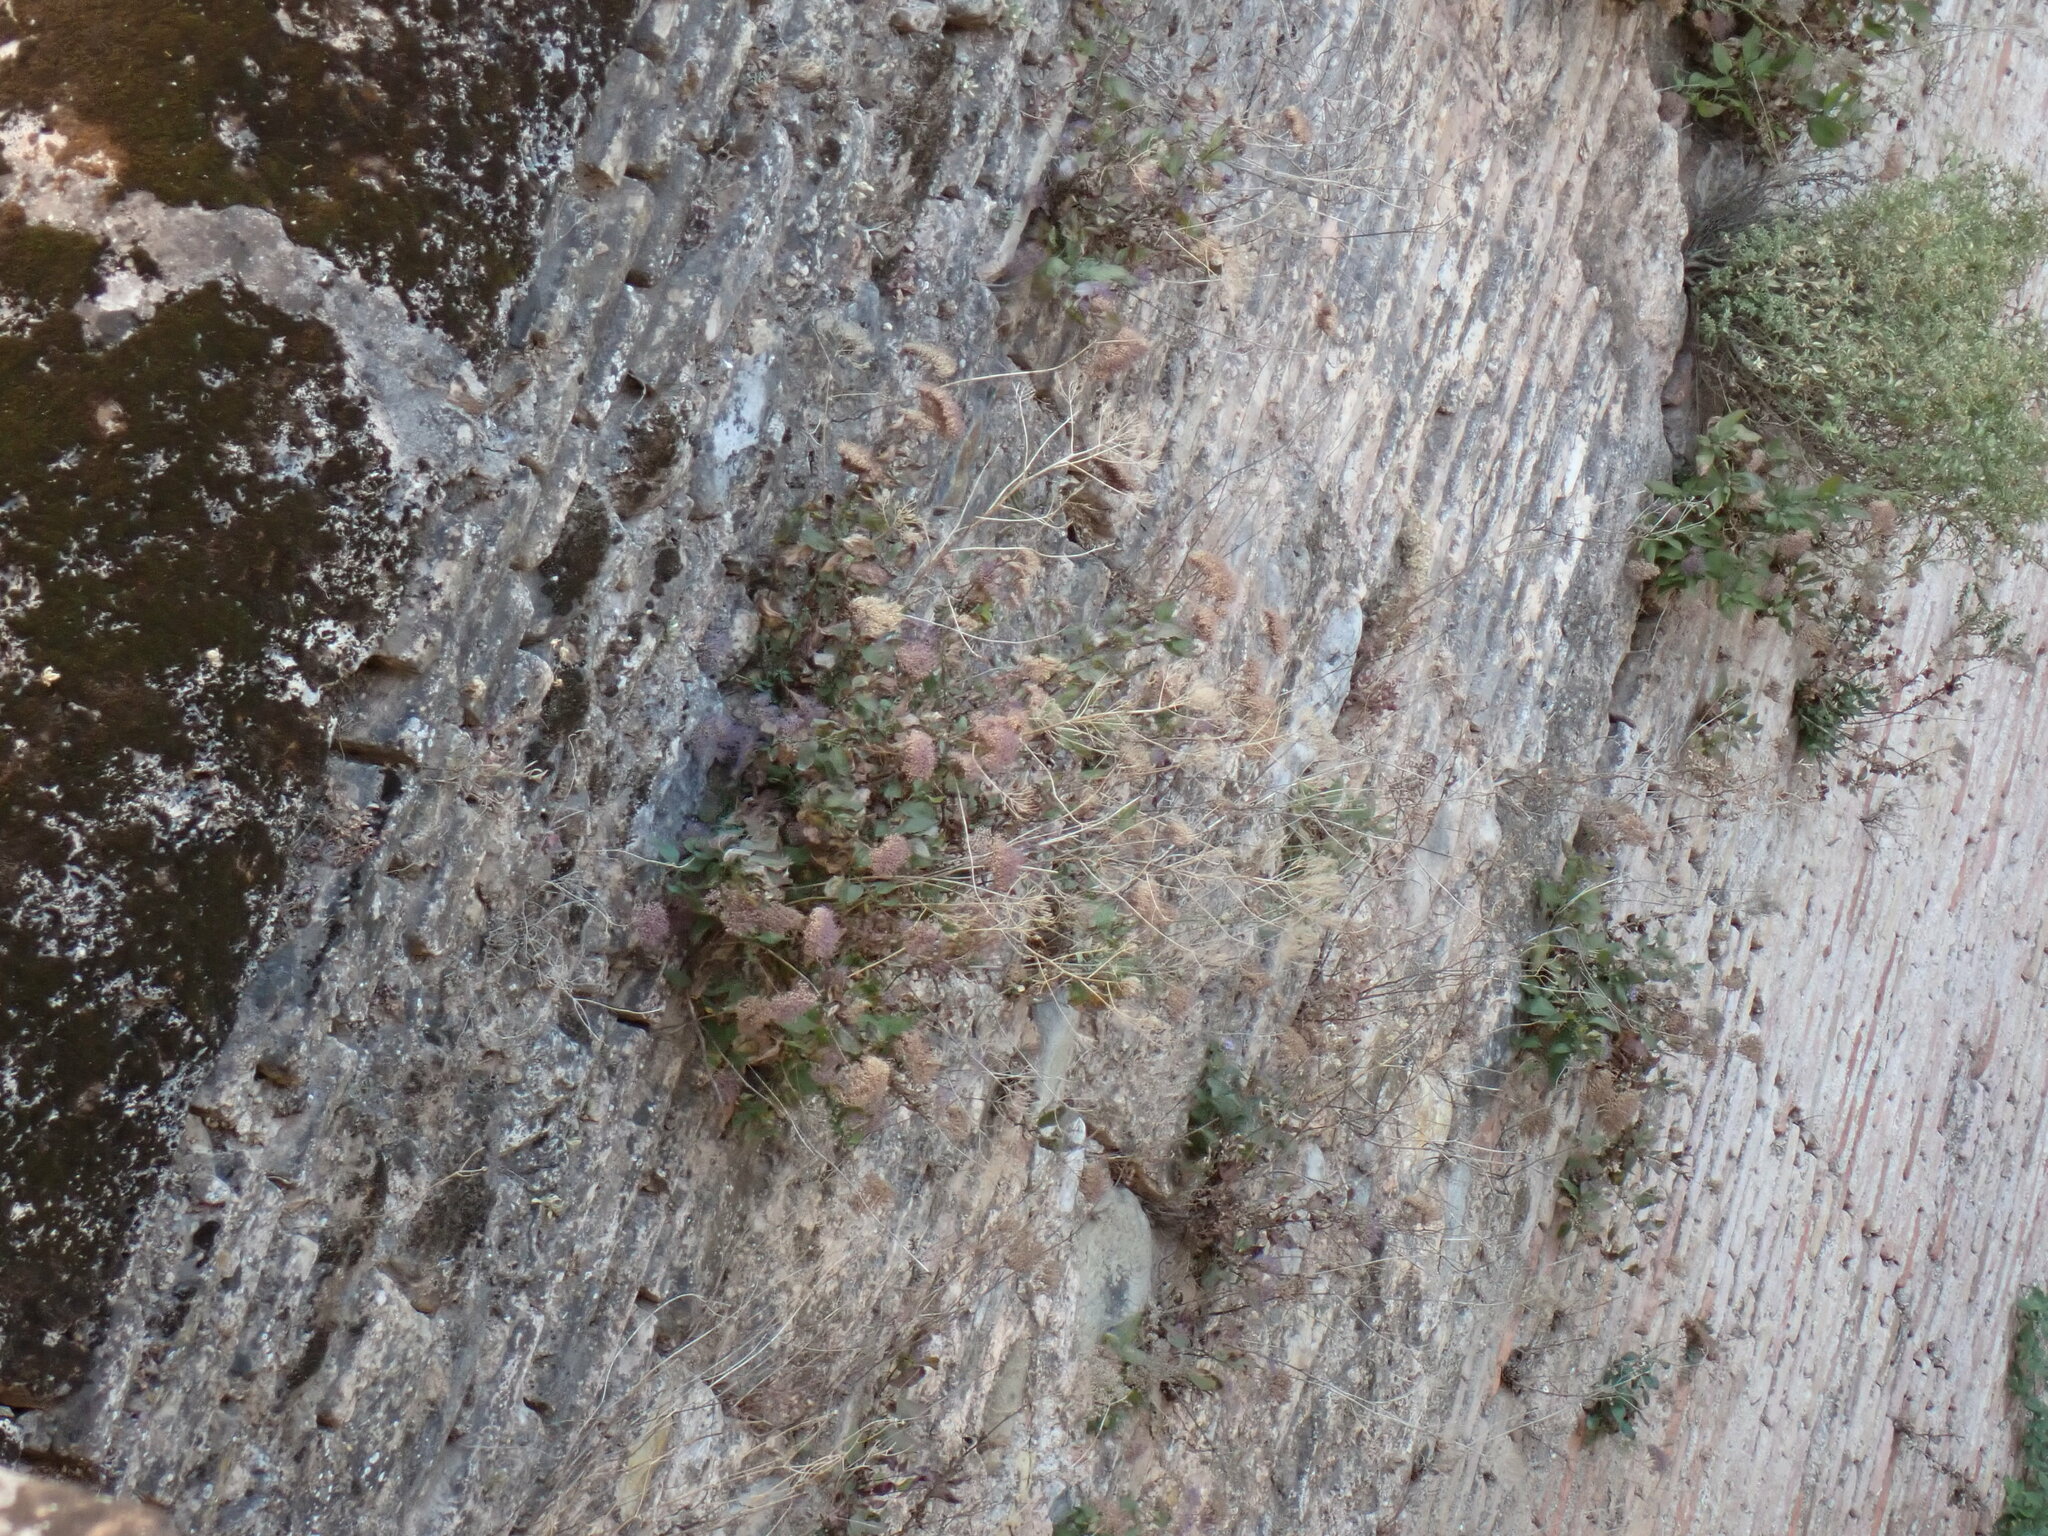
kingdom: Plantae
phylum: Tracheophyta
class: Magnoliopsida
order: Asterales
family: Campanulaceae
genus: Trachelium
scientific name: Trachelium caeruleum
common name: Throatwort
